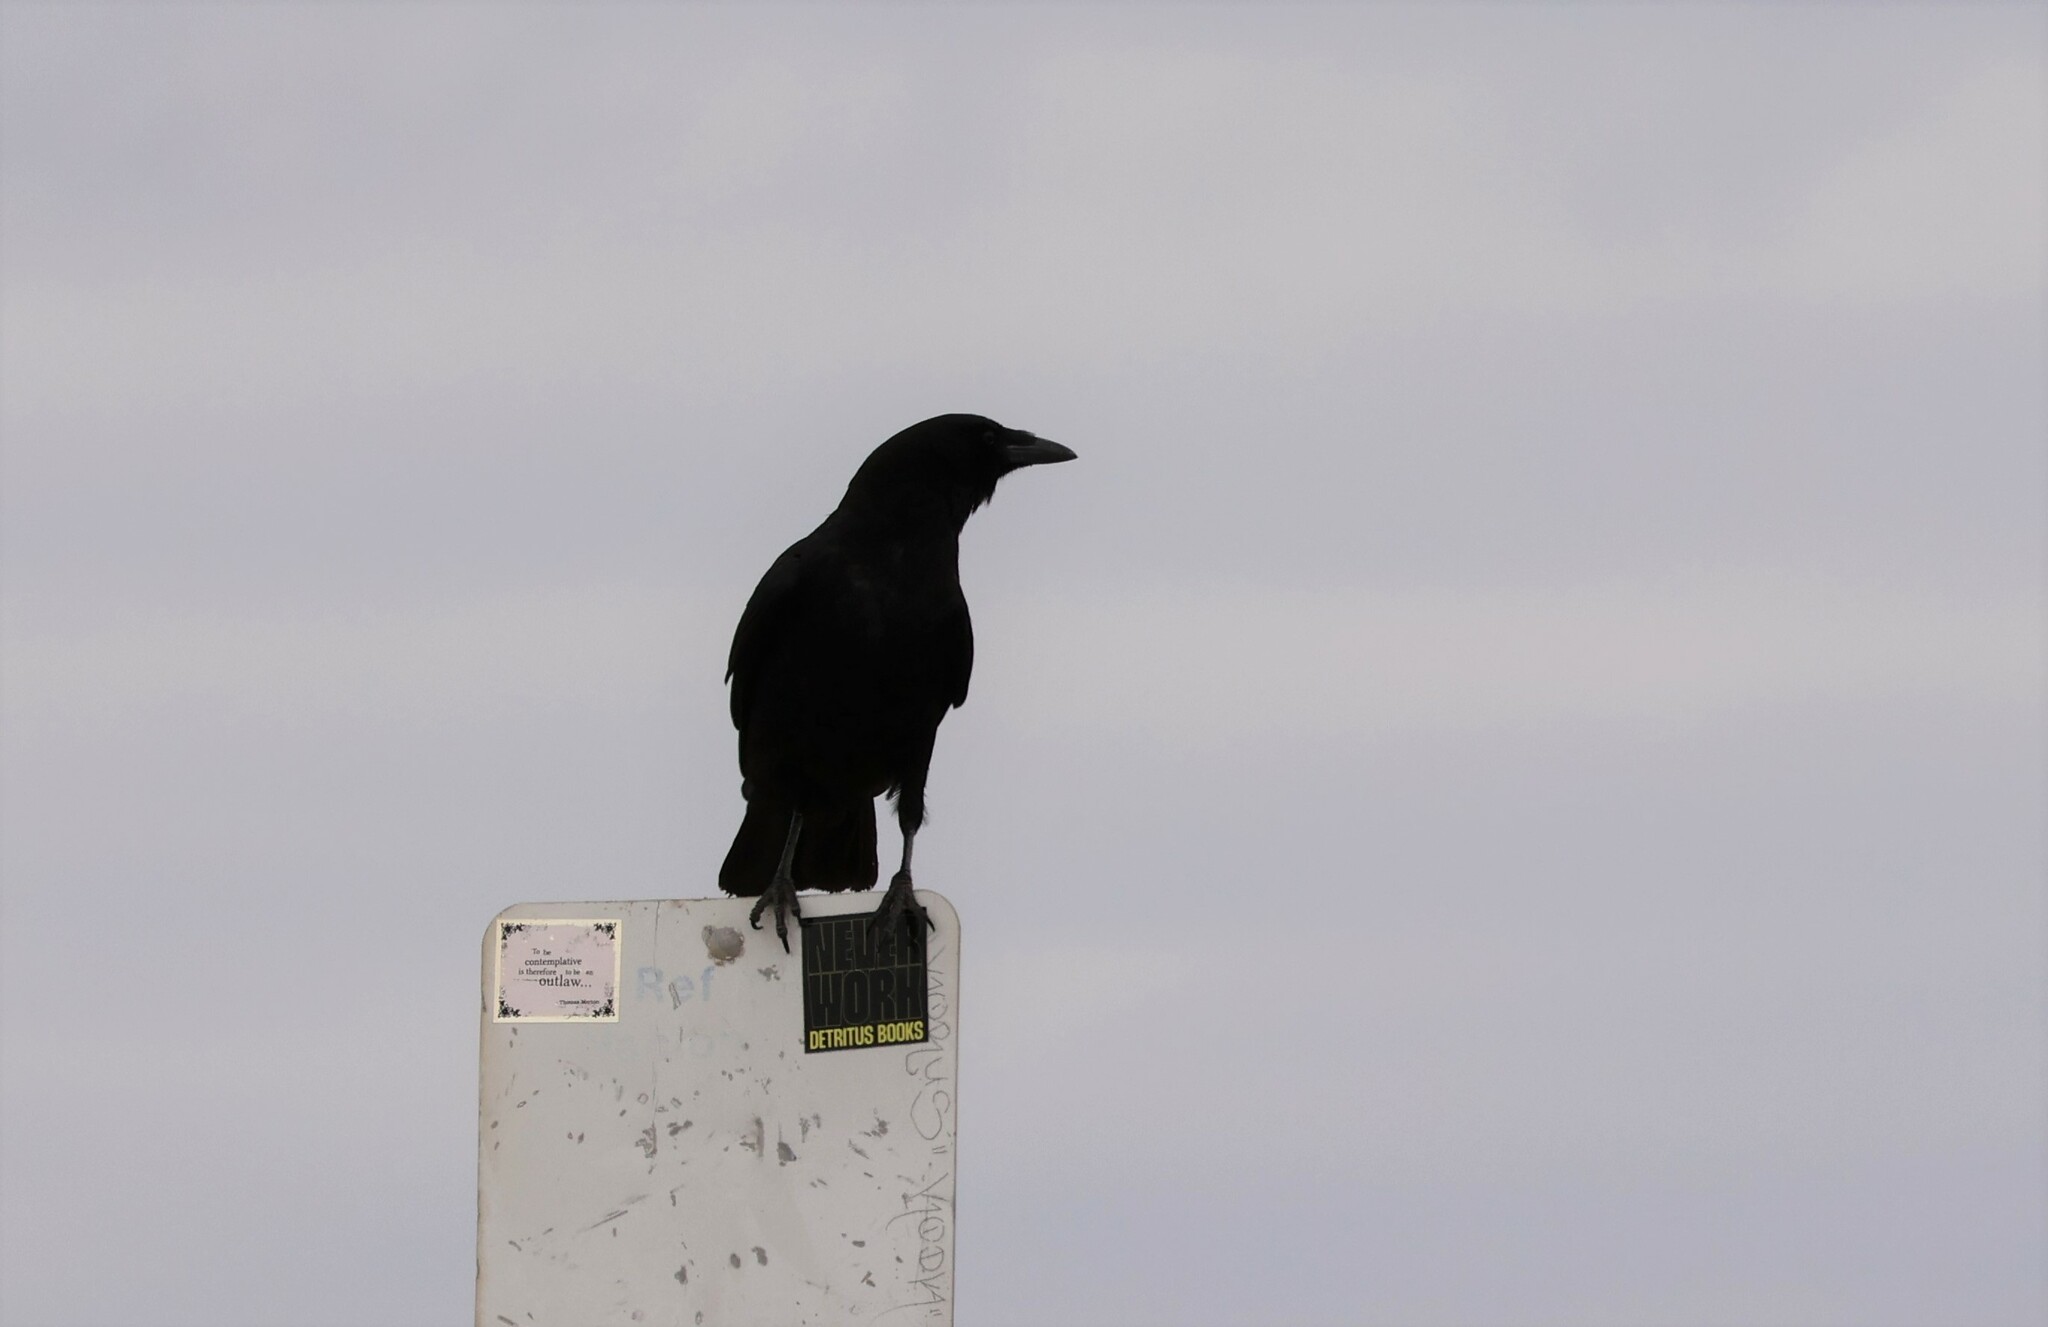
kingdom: Animalia
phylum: Chordata
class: Aves
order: Passeriformes
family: Corvidae
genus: Corvus
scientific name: Corvus brachyrhynchos
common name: American crow
